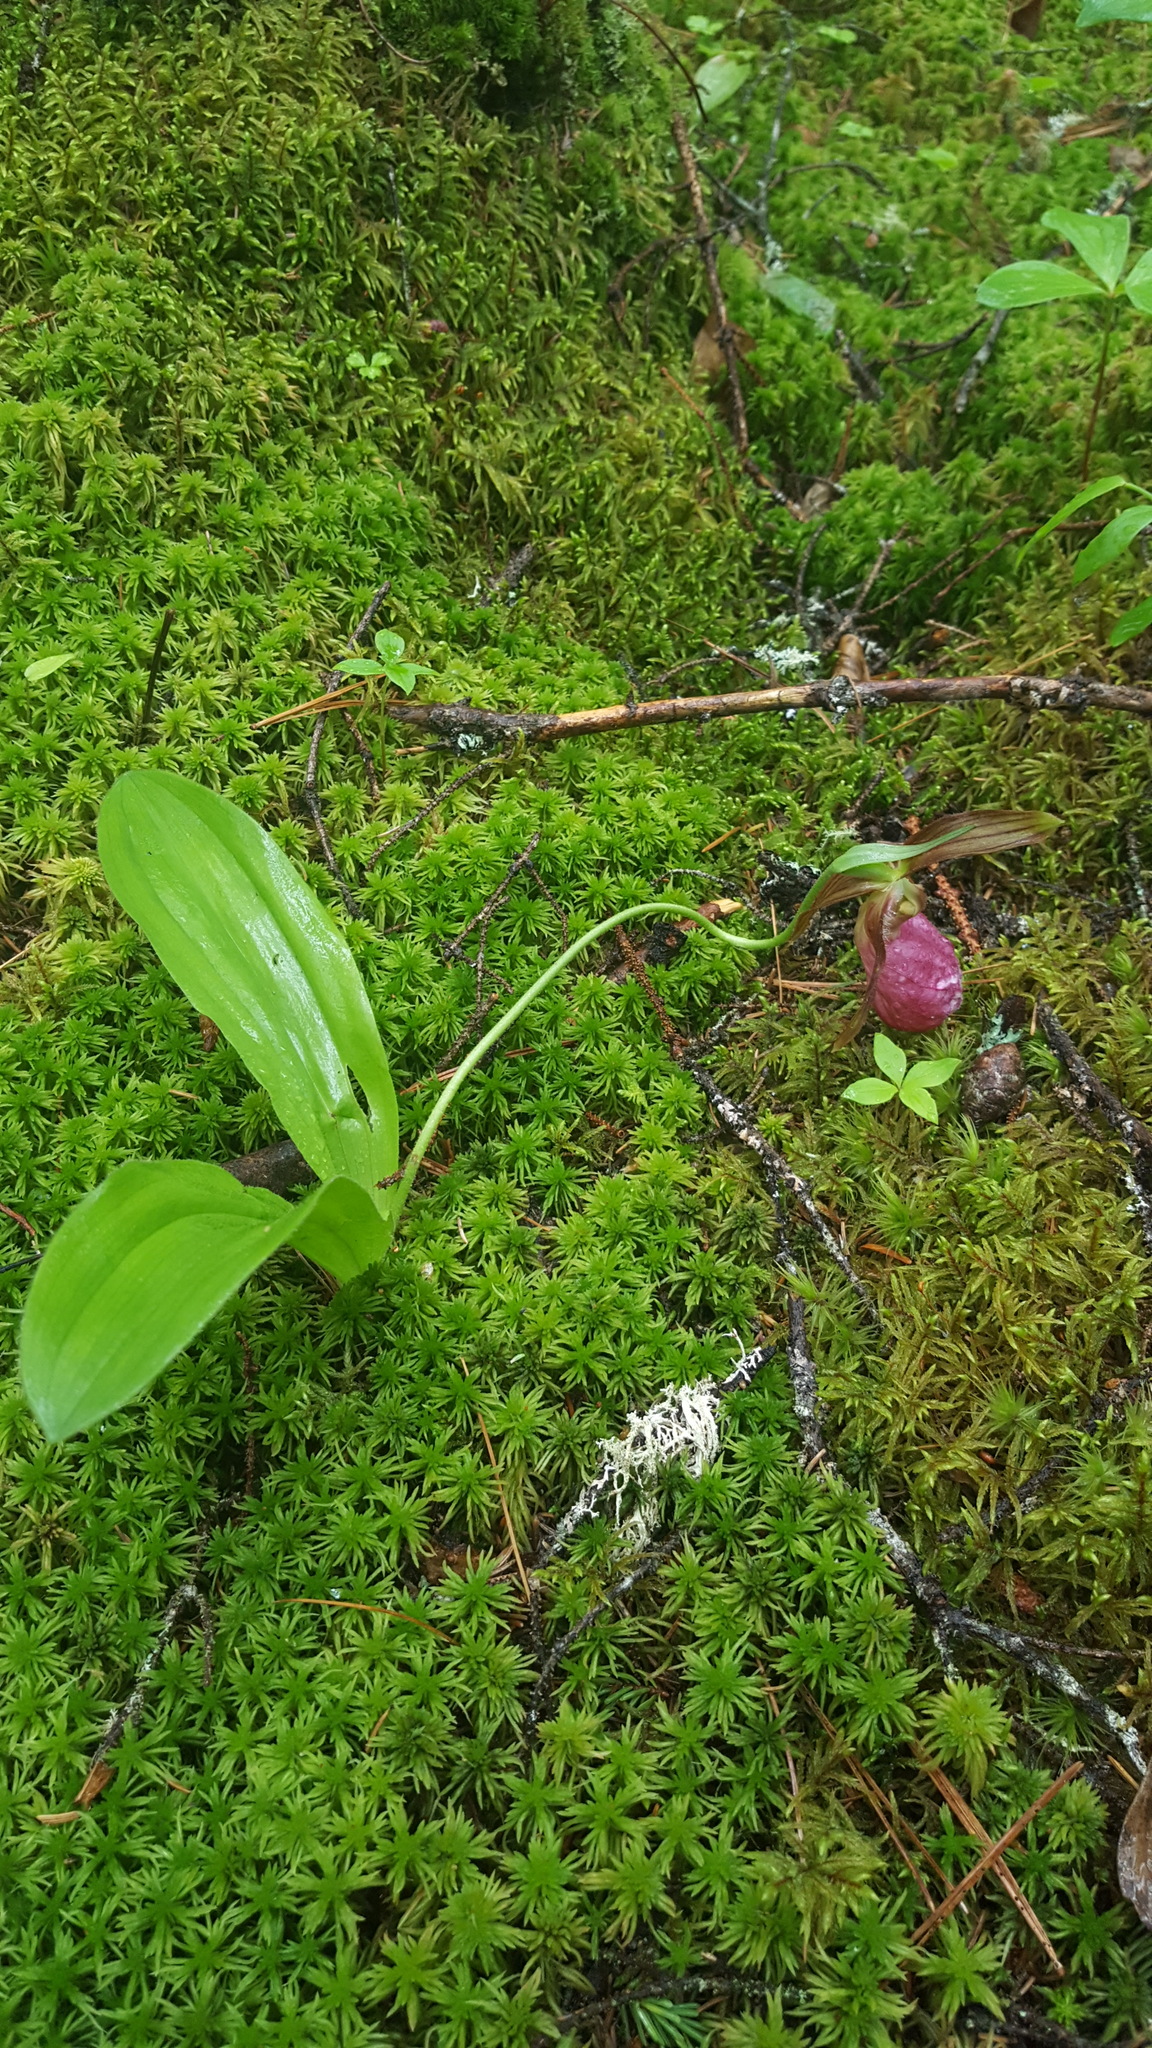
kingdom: Plantae
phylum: Tracheophyta
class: Liliopsida
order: Asparagales
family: Orchidaceae
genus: Cypripedium
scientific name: Cypripedium acaule
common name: Pink lady's-slipper
